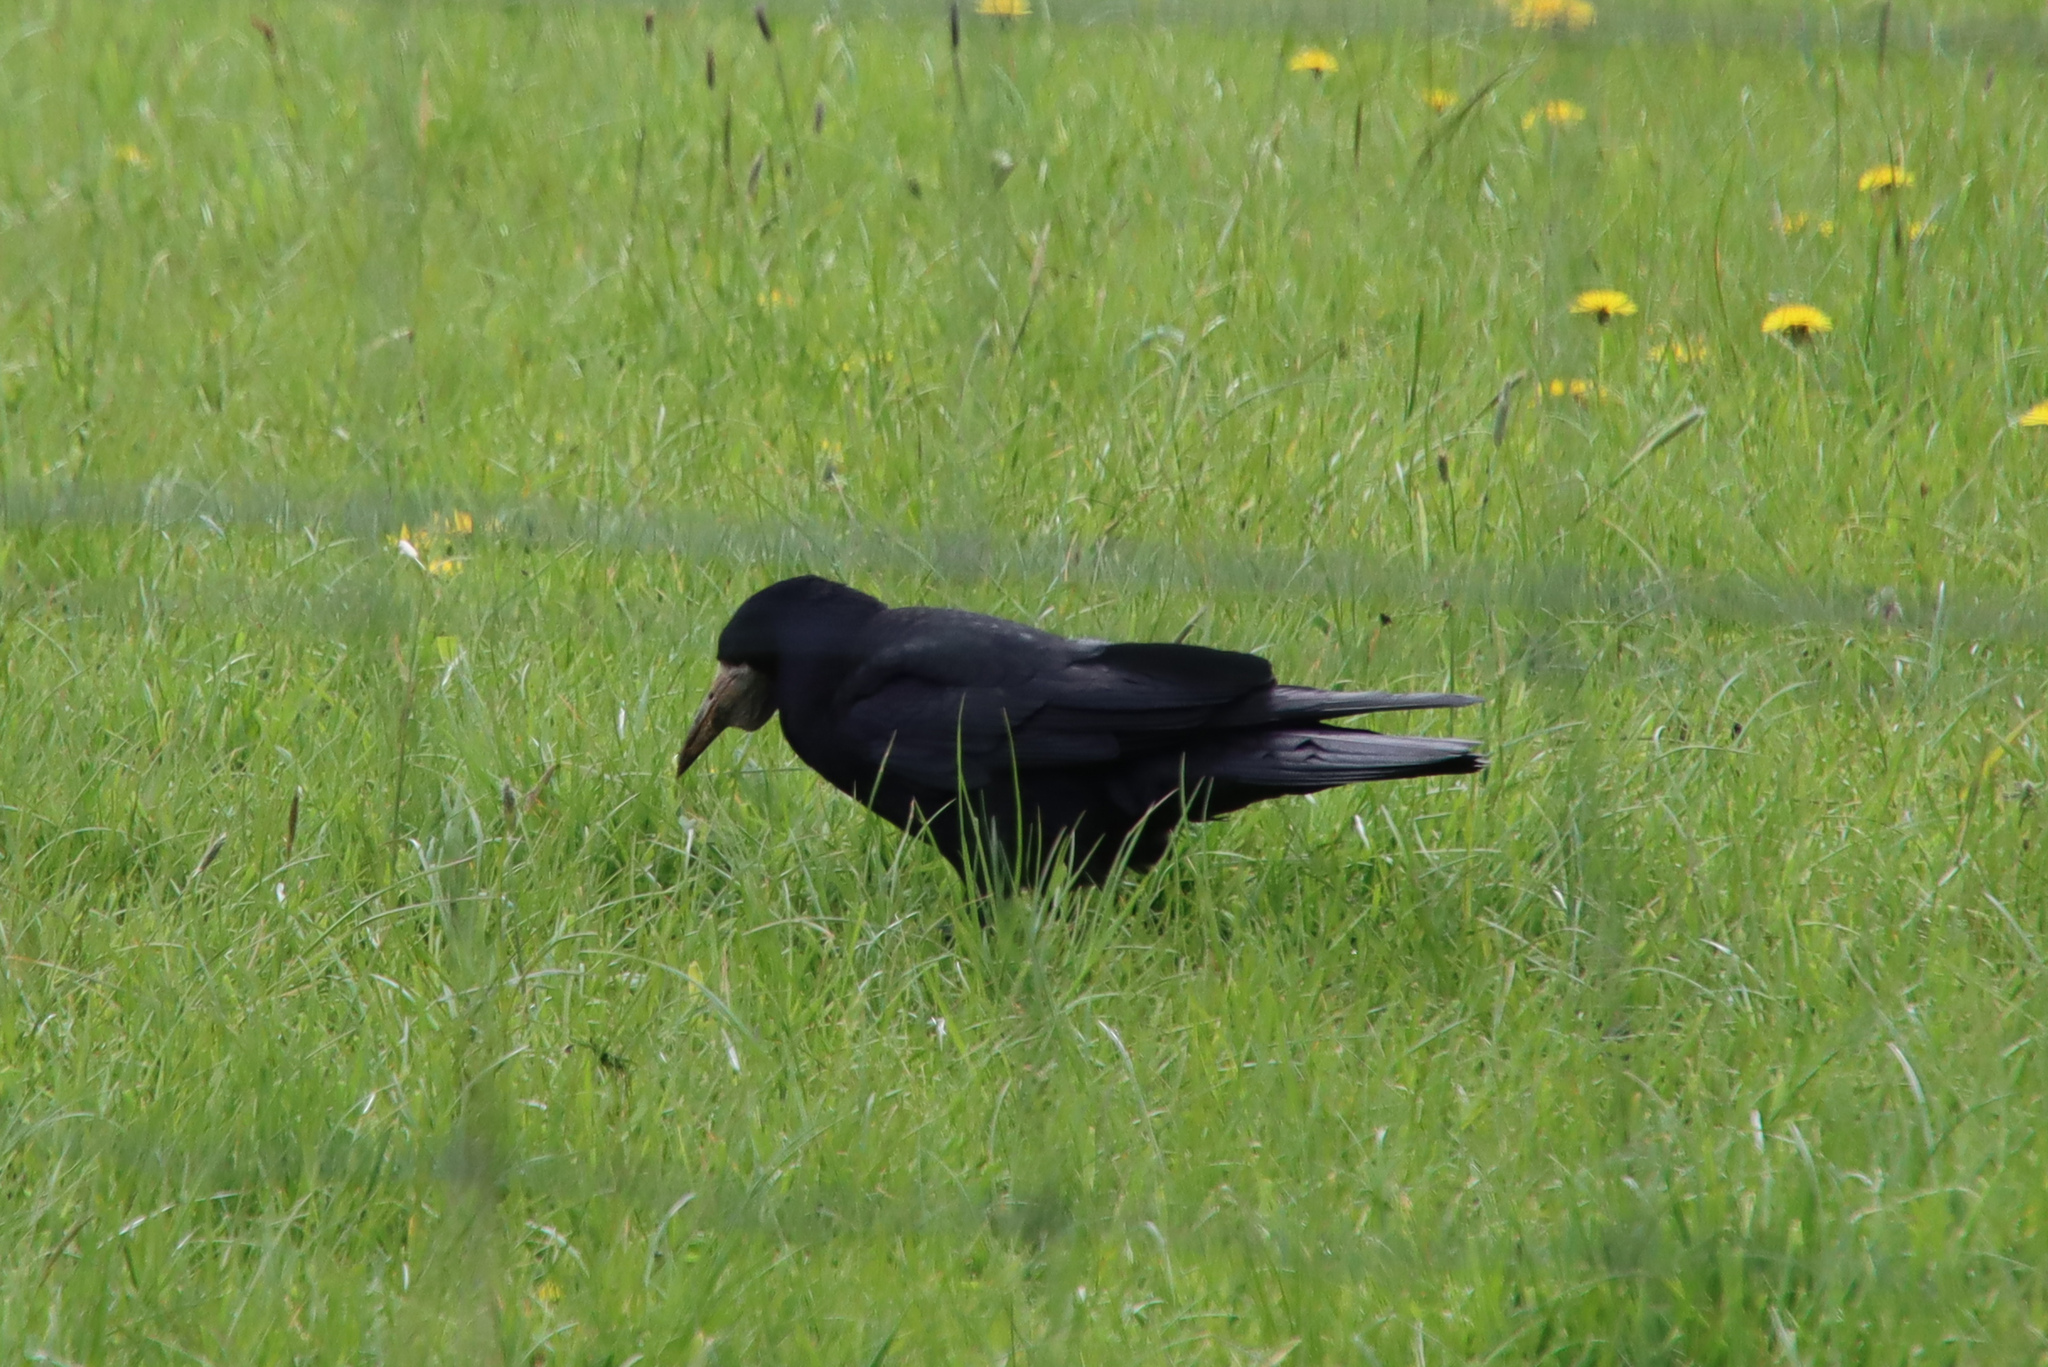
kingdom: Animalia
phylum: Chordata
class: Aves
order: Passeriformes
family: Corvidae
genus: Corvus
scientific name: Corvus frugilegus
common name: Rook
